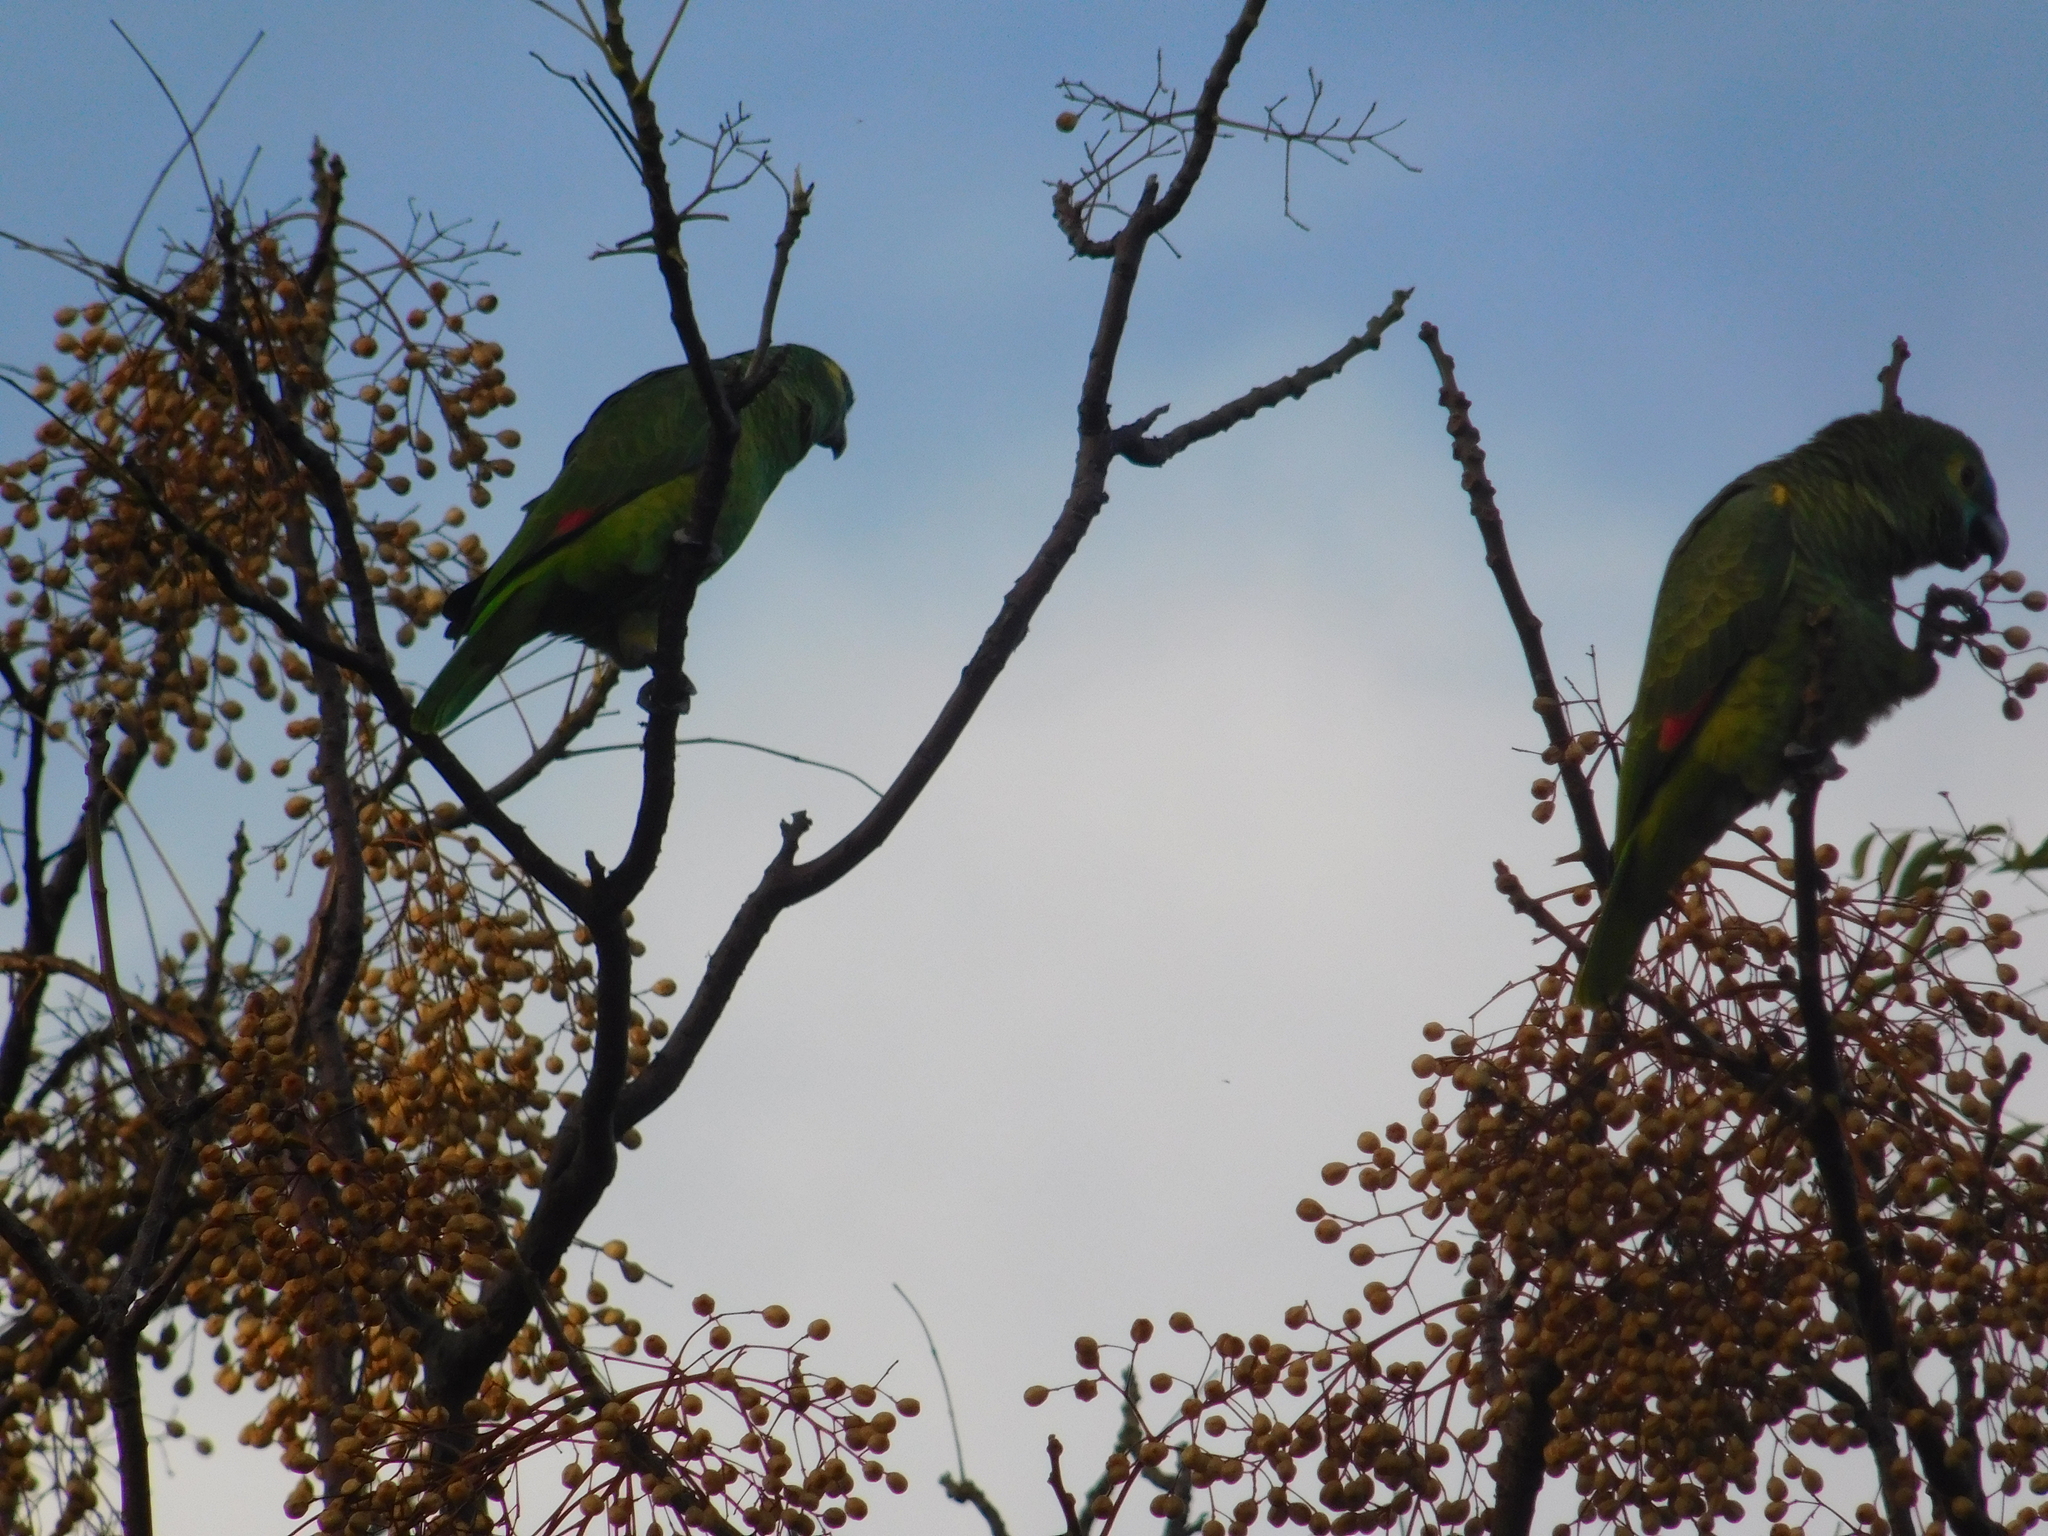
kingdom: Animalia
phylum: Chordata
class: Aves
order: Psittaciformes
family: Psittacidae
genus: Amazona
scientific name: Amazona aestiva
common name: Turquoise-fronted amazon
